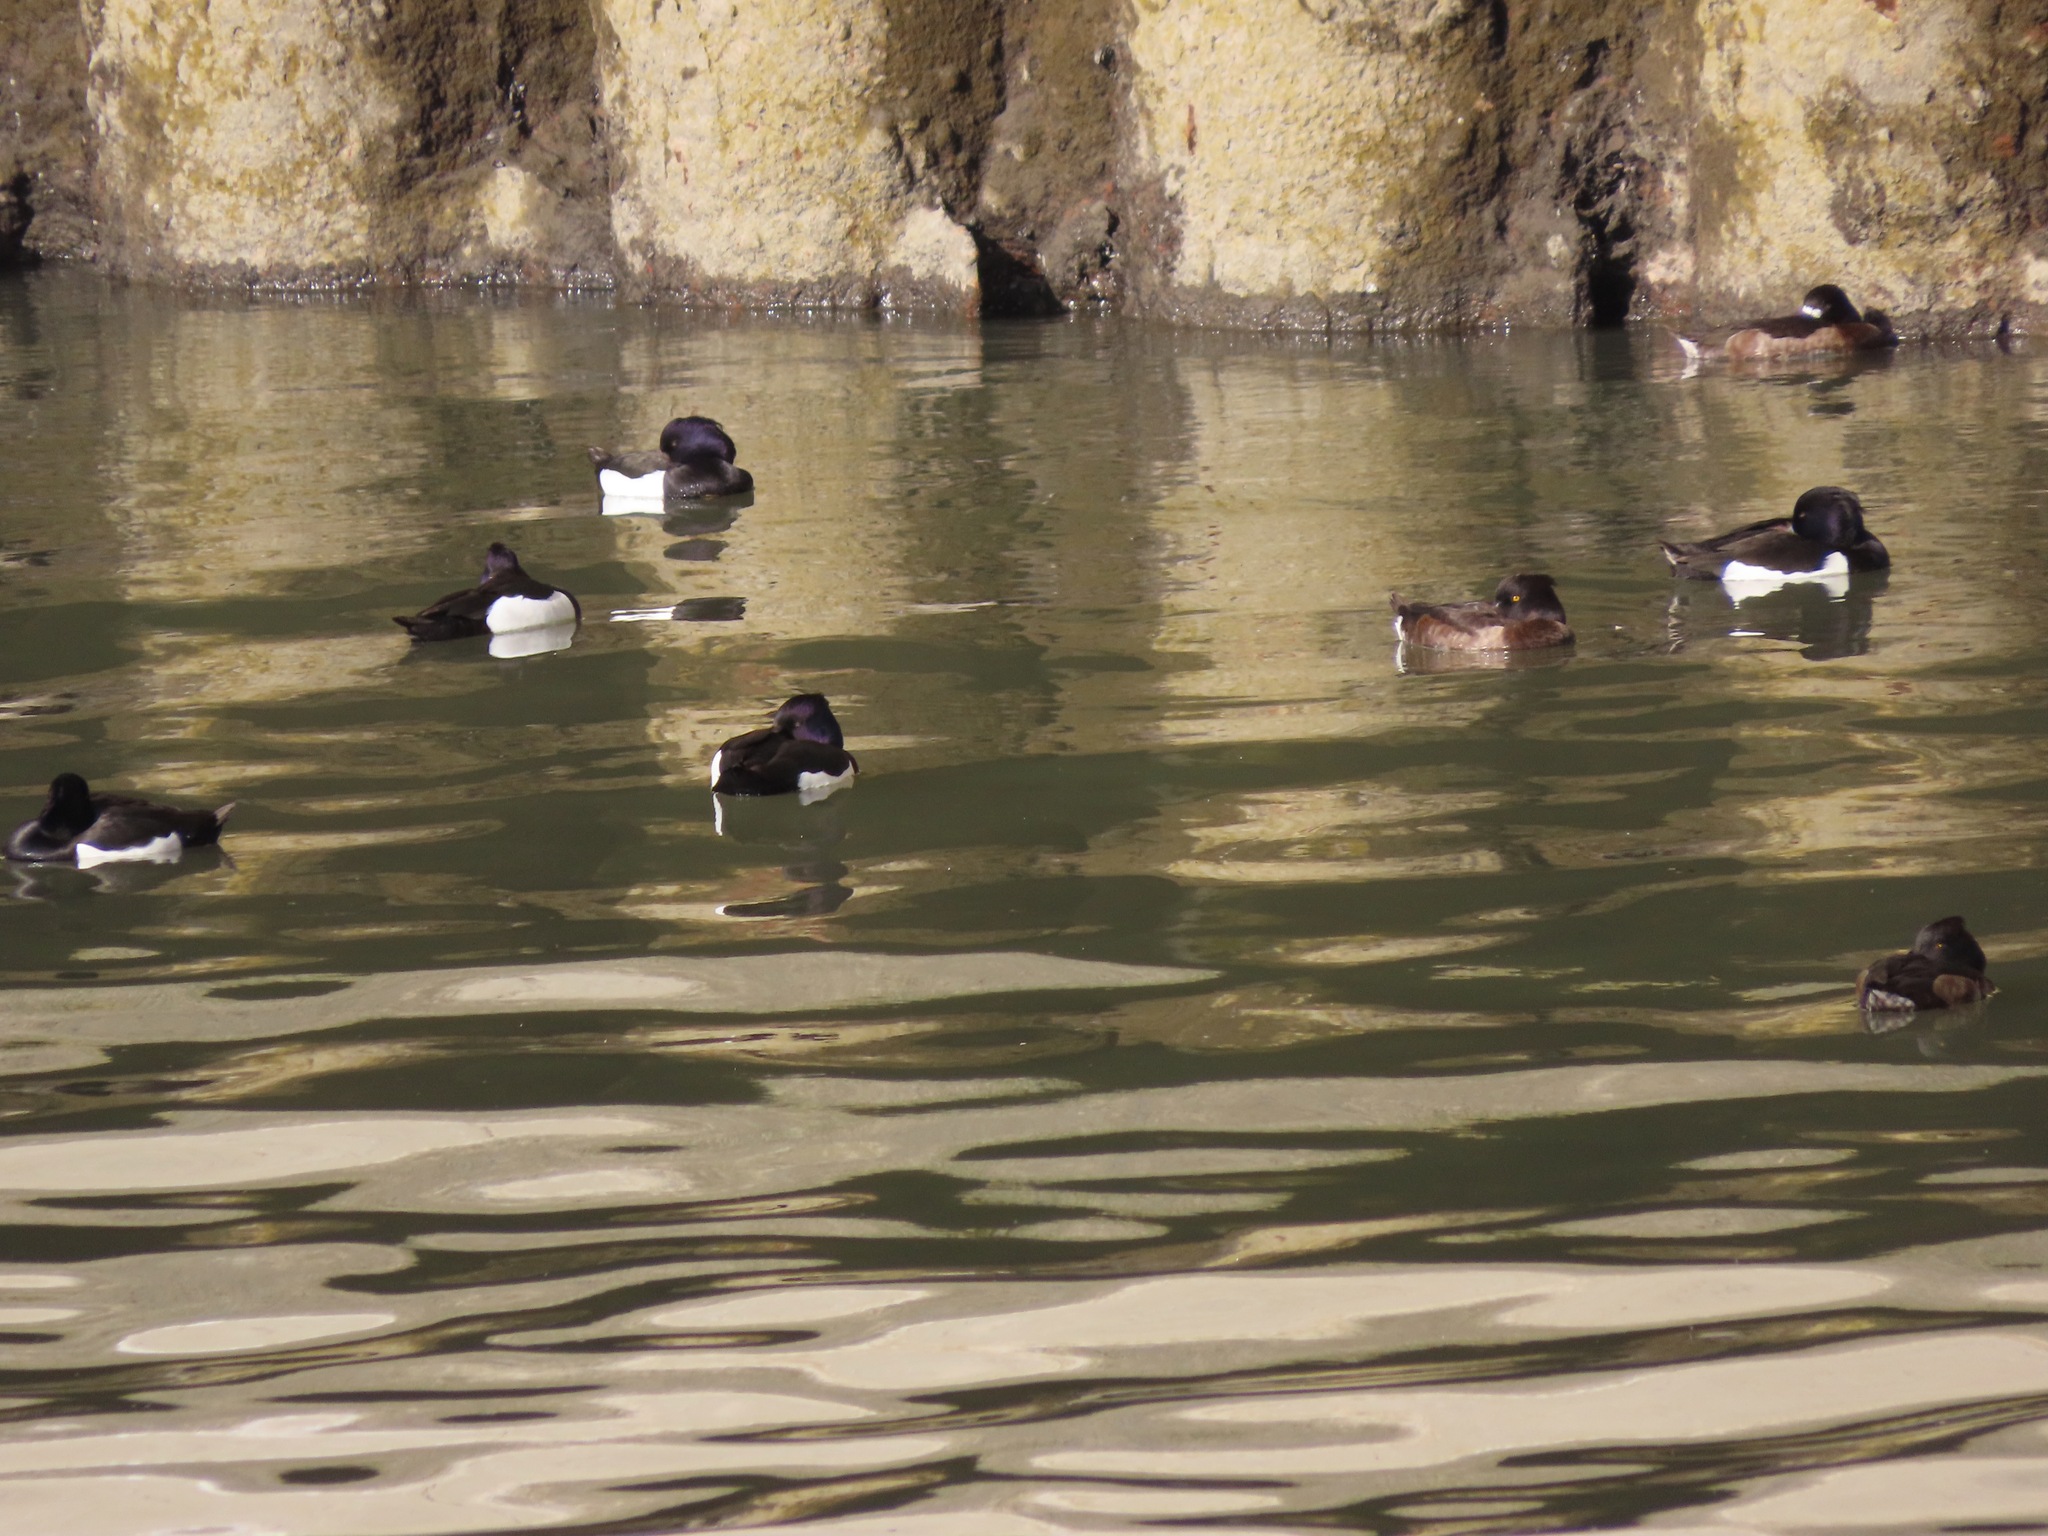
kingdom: Animalia
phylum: Chordata
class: Aves
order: Anseriformes
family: Anatidae
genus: Aythya
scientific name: Aythya fuligula
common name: Tufted duck
